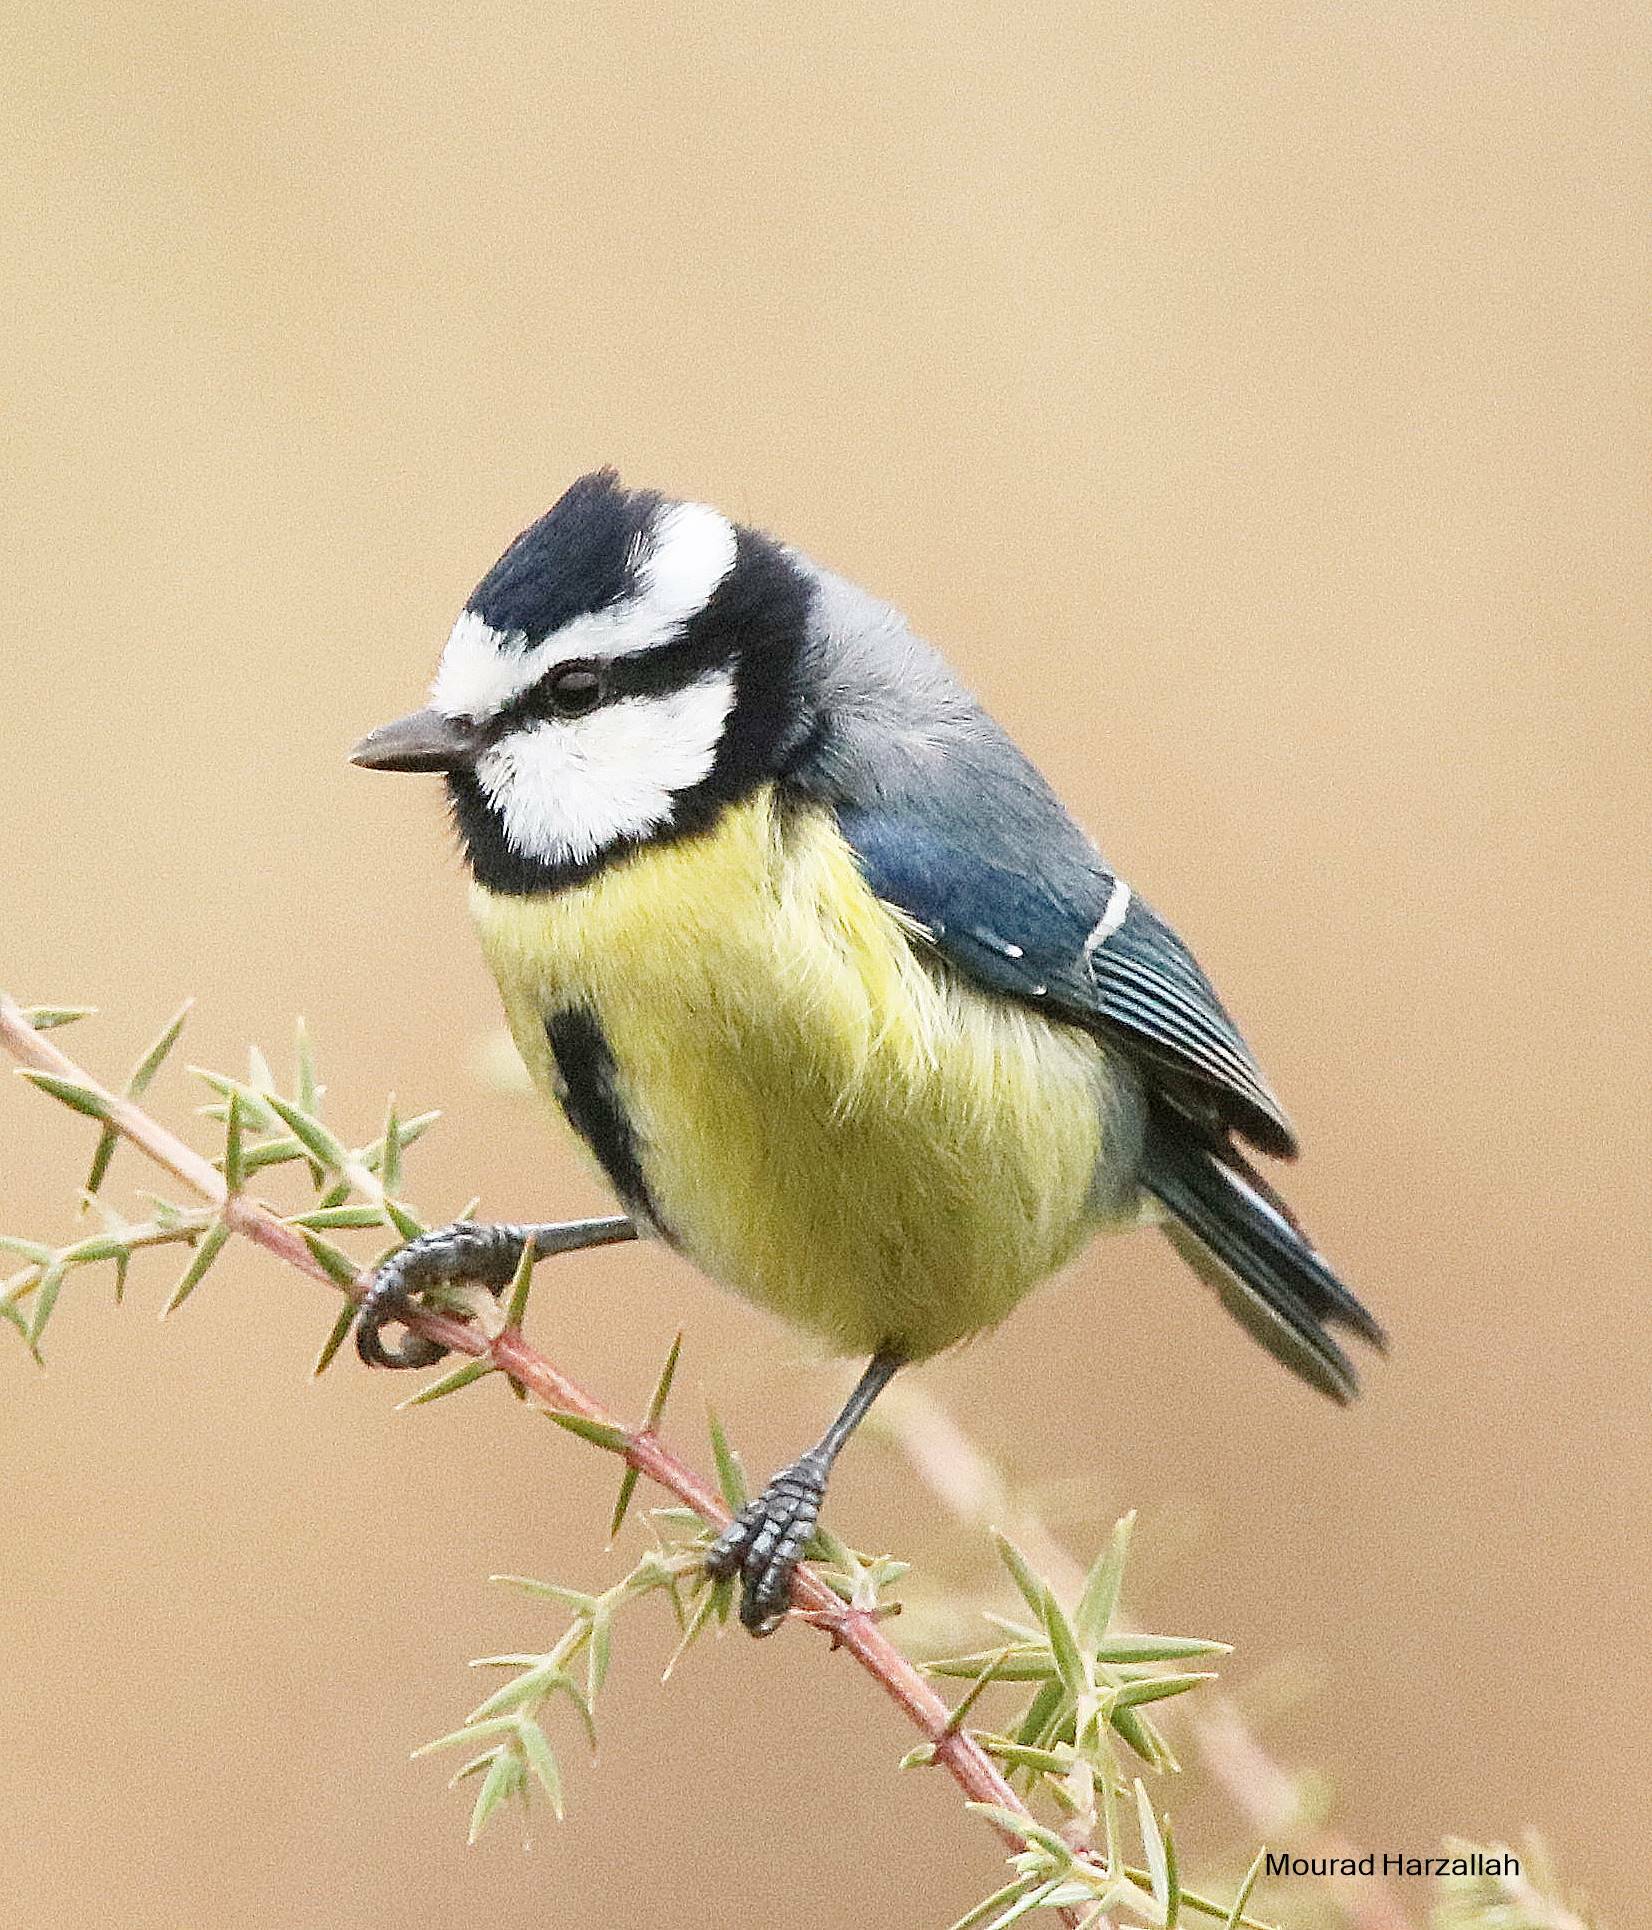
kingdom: Animalia
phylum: Chordata
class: Aves
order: Passeriformes
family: Paridae
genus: Cyanistes
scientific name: Cyanistes teneriffae
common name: African blue tit
